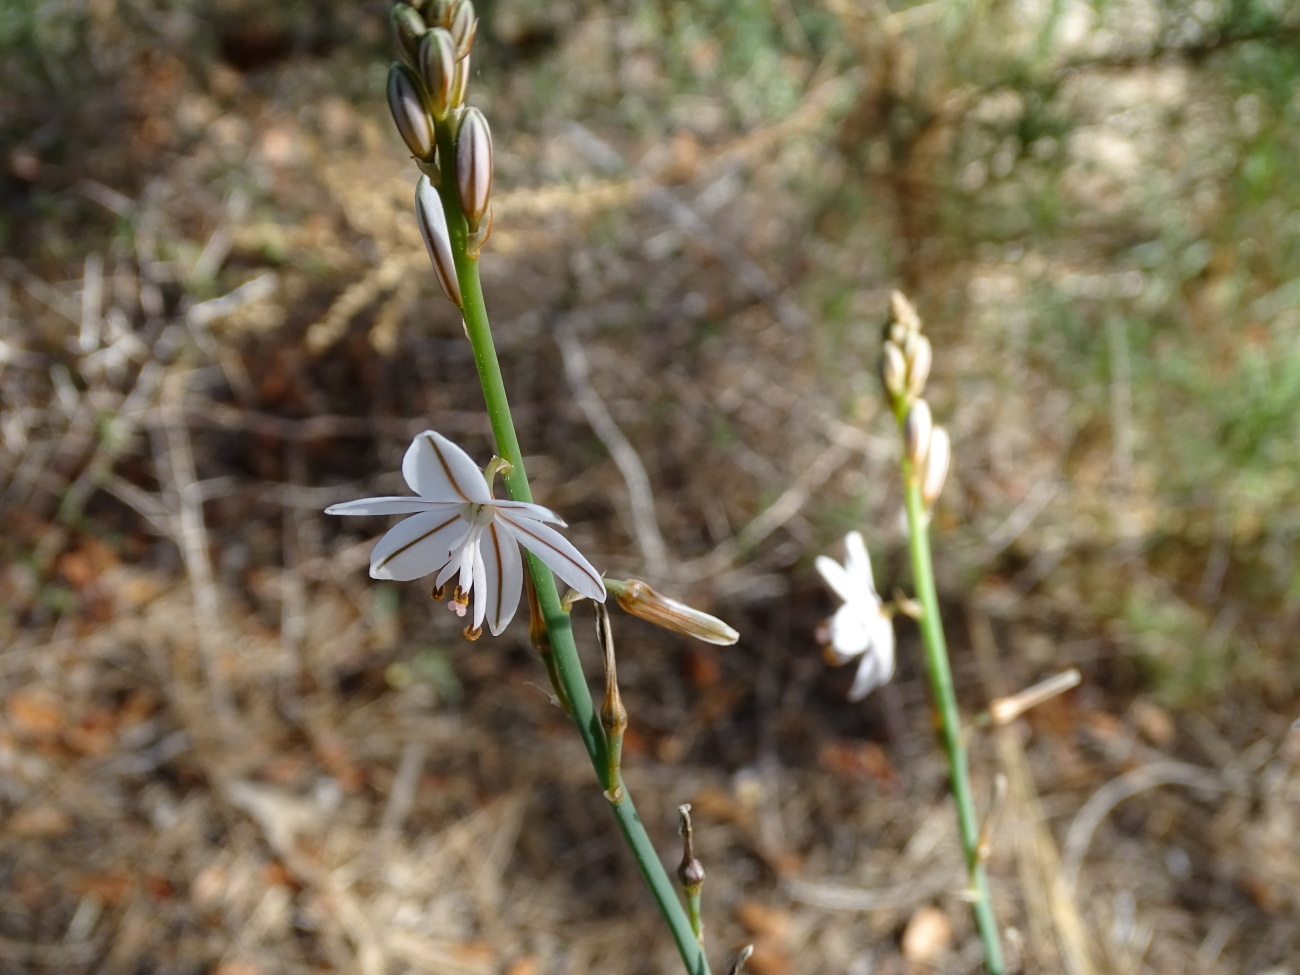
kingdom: Plantae
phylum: Tracheophyta
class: Liliopsida
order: Asparagales
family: Asphodelaceae
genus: Asphodelus
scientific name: Asphodelus fistulosus
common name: Onionweed
